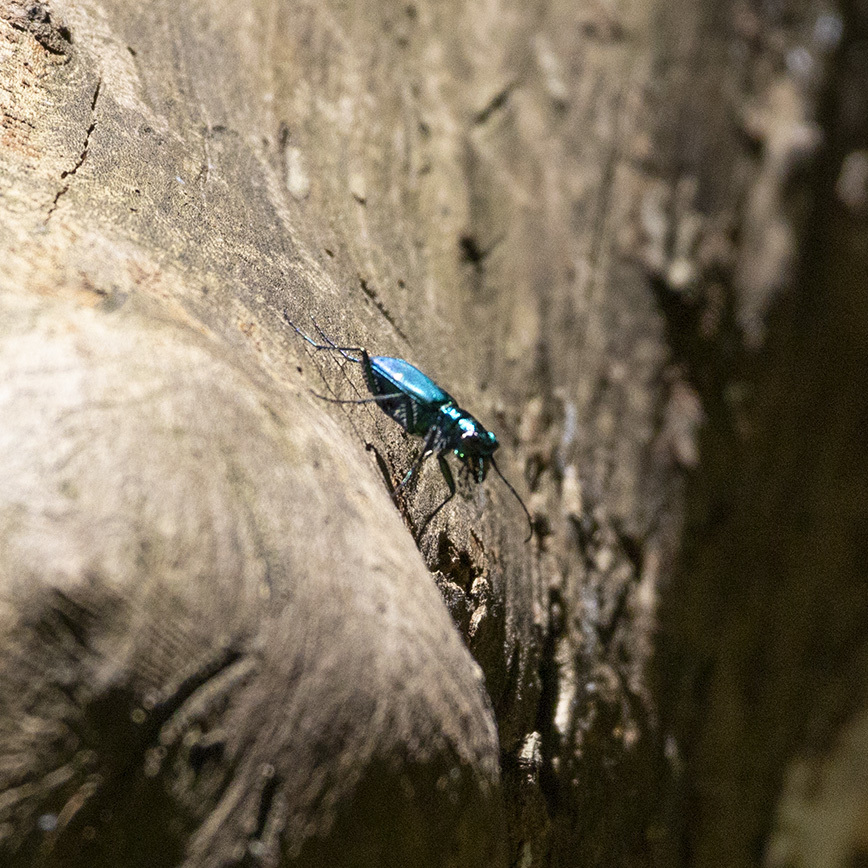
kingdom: Animalia
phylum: Arthropoda
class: Insecta
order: Coleoptera
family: Carabidae
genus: Cicindela
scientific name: Cicindela sexguttata
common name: Six-spotted tiger beetle
